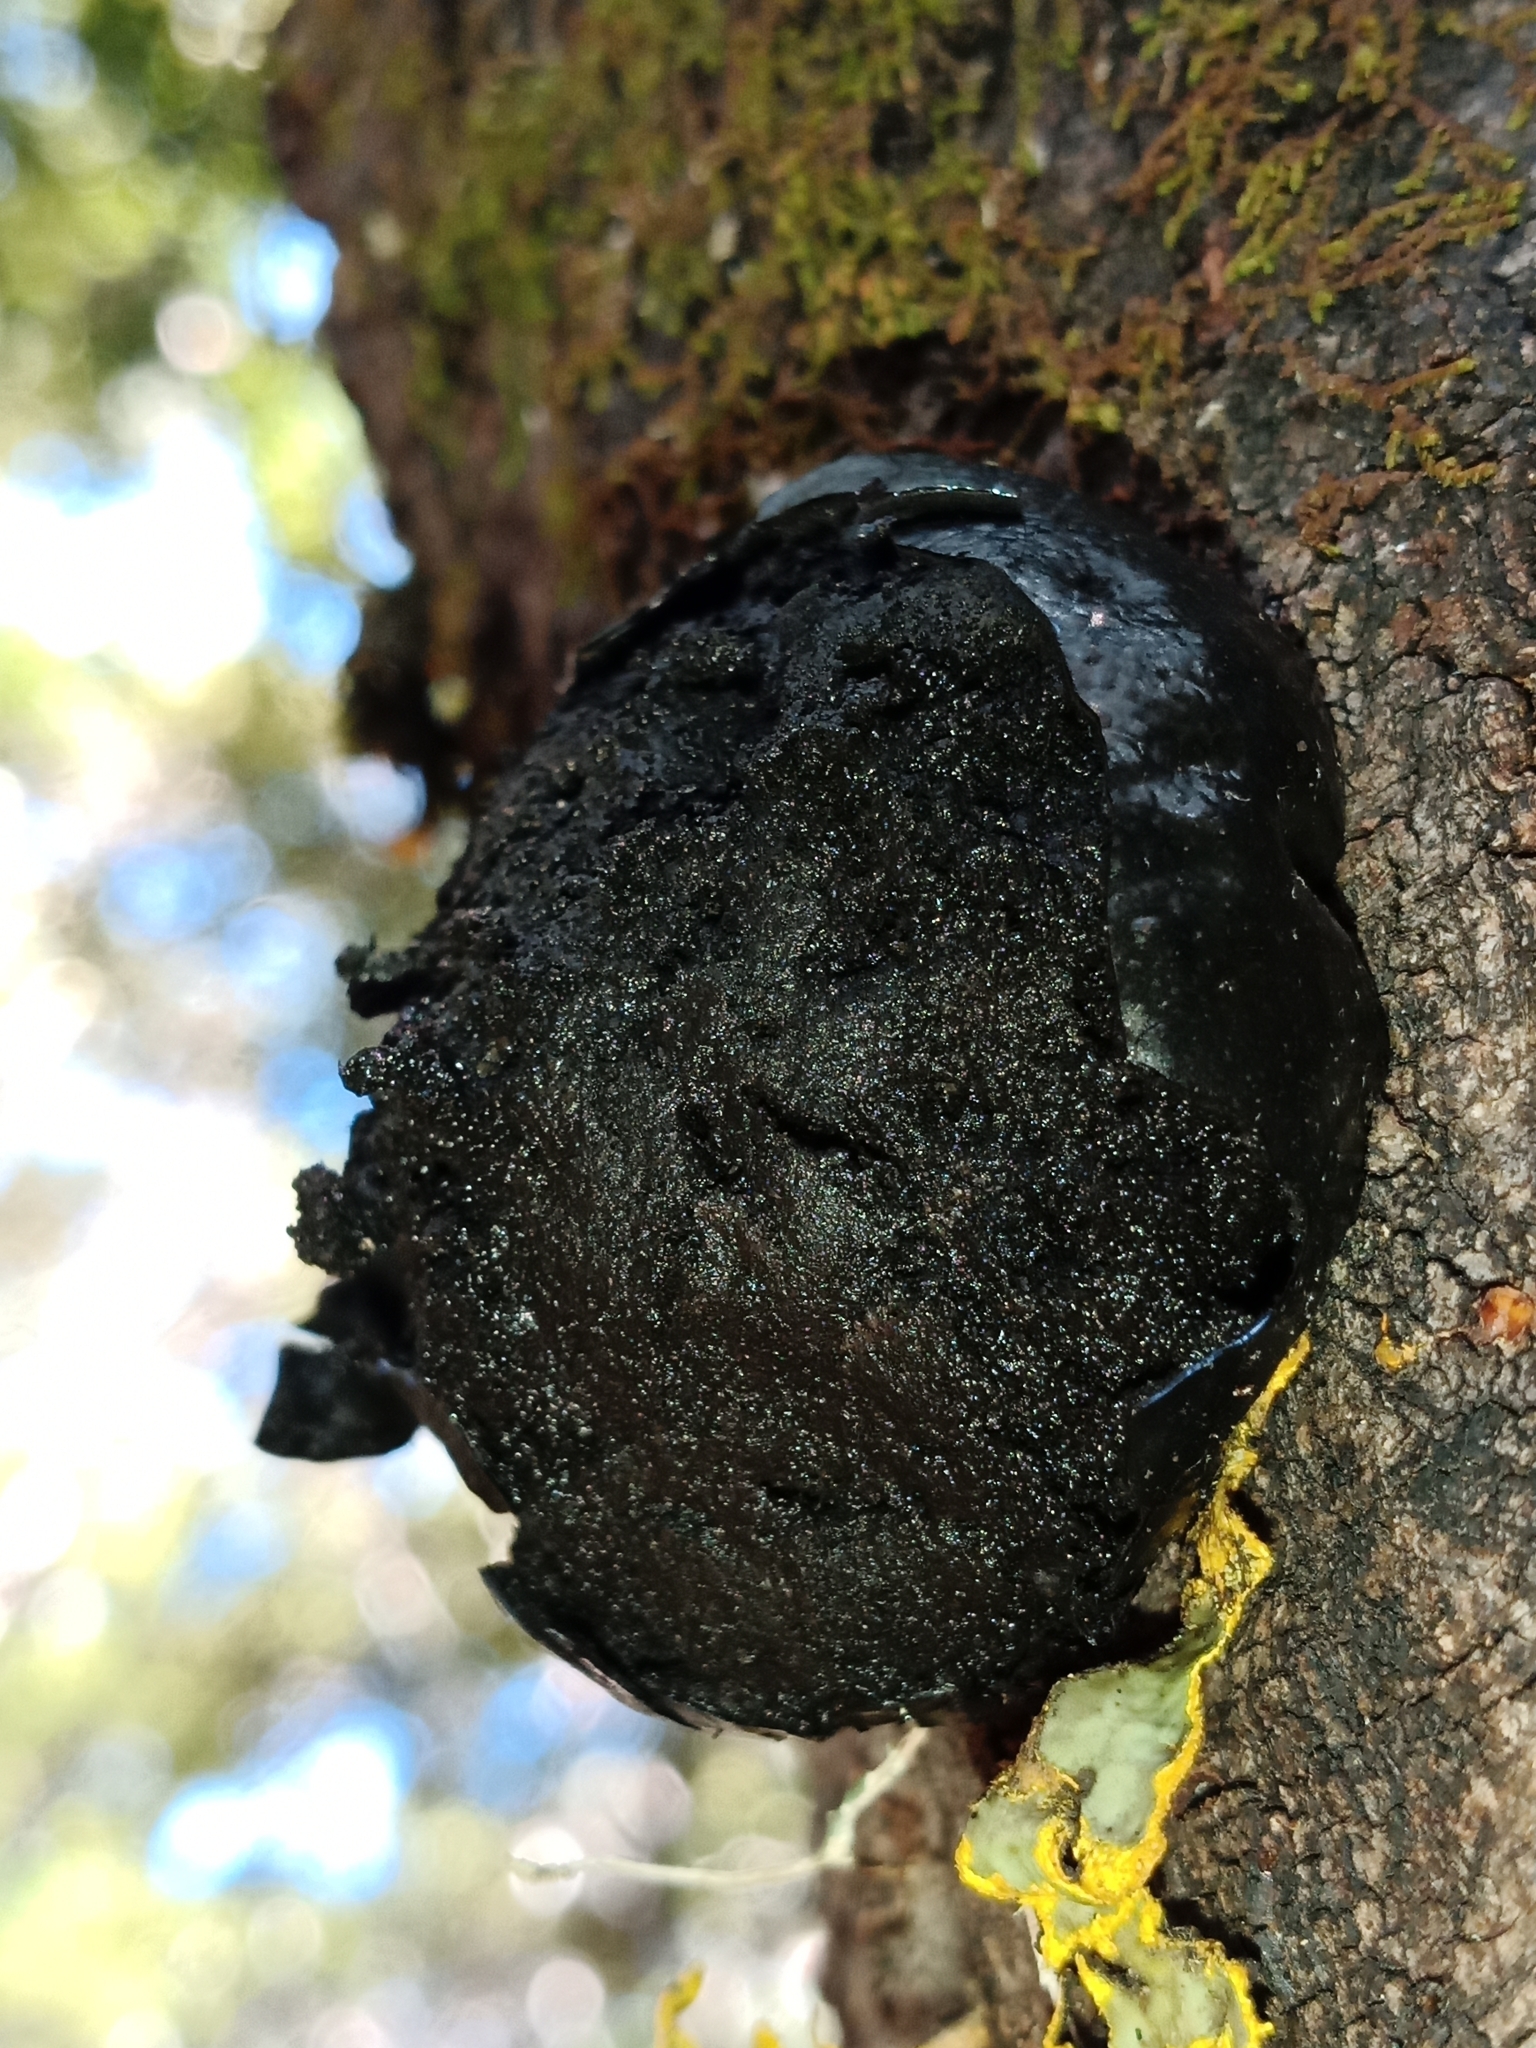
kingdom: Fungi
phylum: Ascomycota
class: Sordariomycetes
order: Xylariales
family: Hypoxylaceae
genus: Daldinia
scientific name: Daldinia
